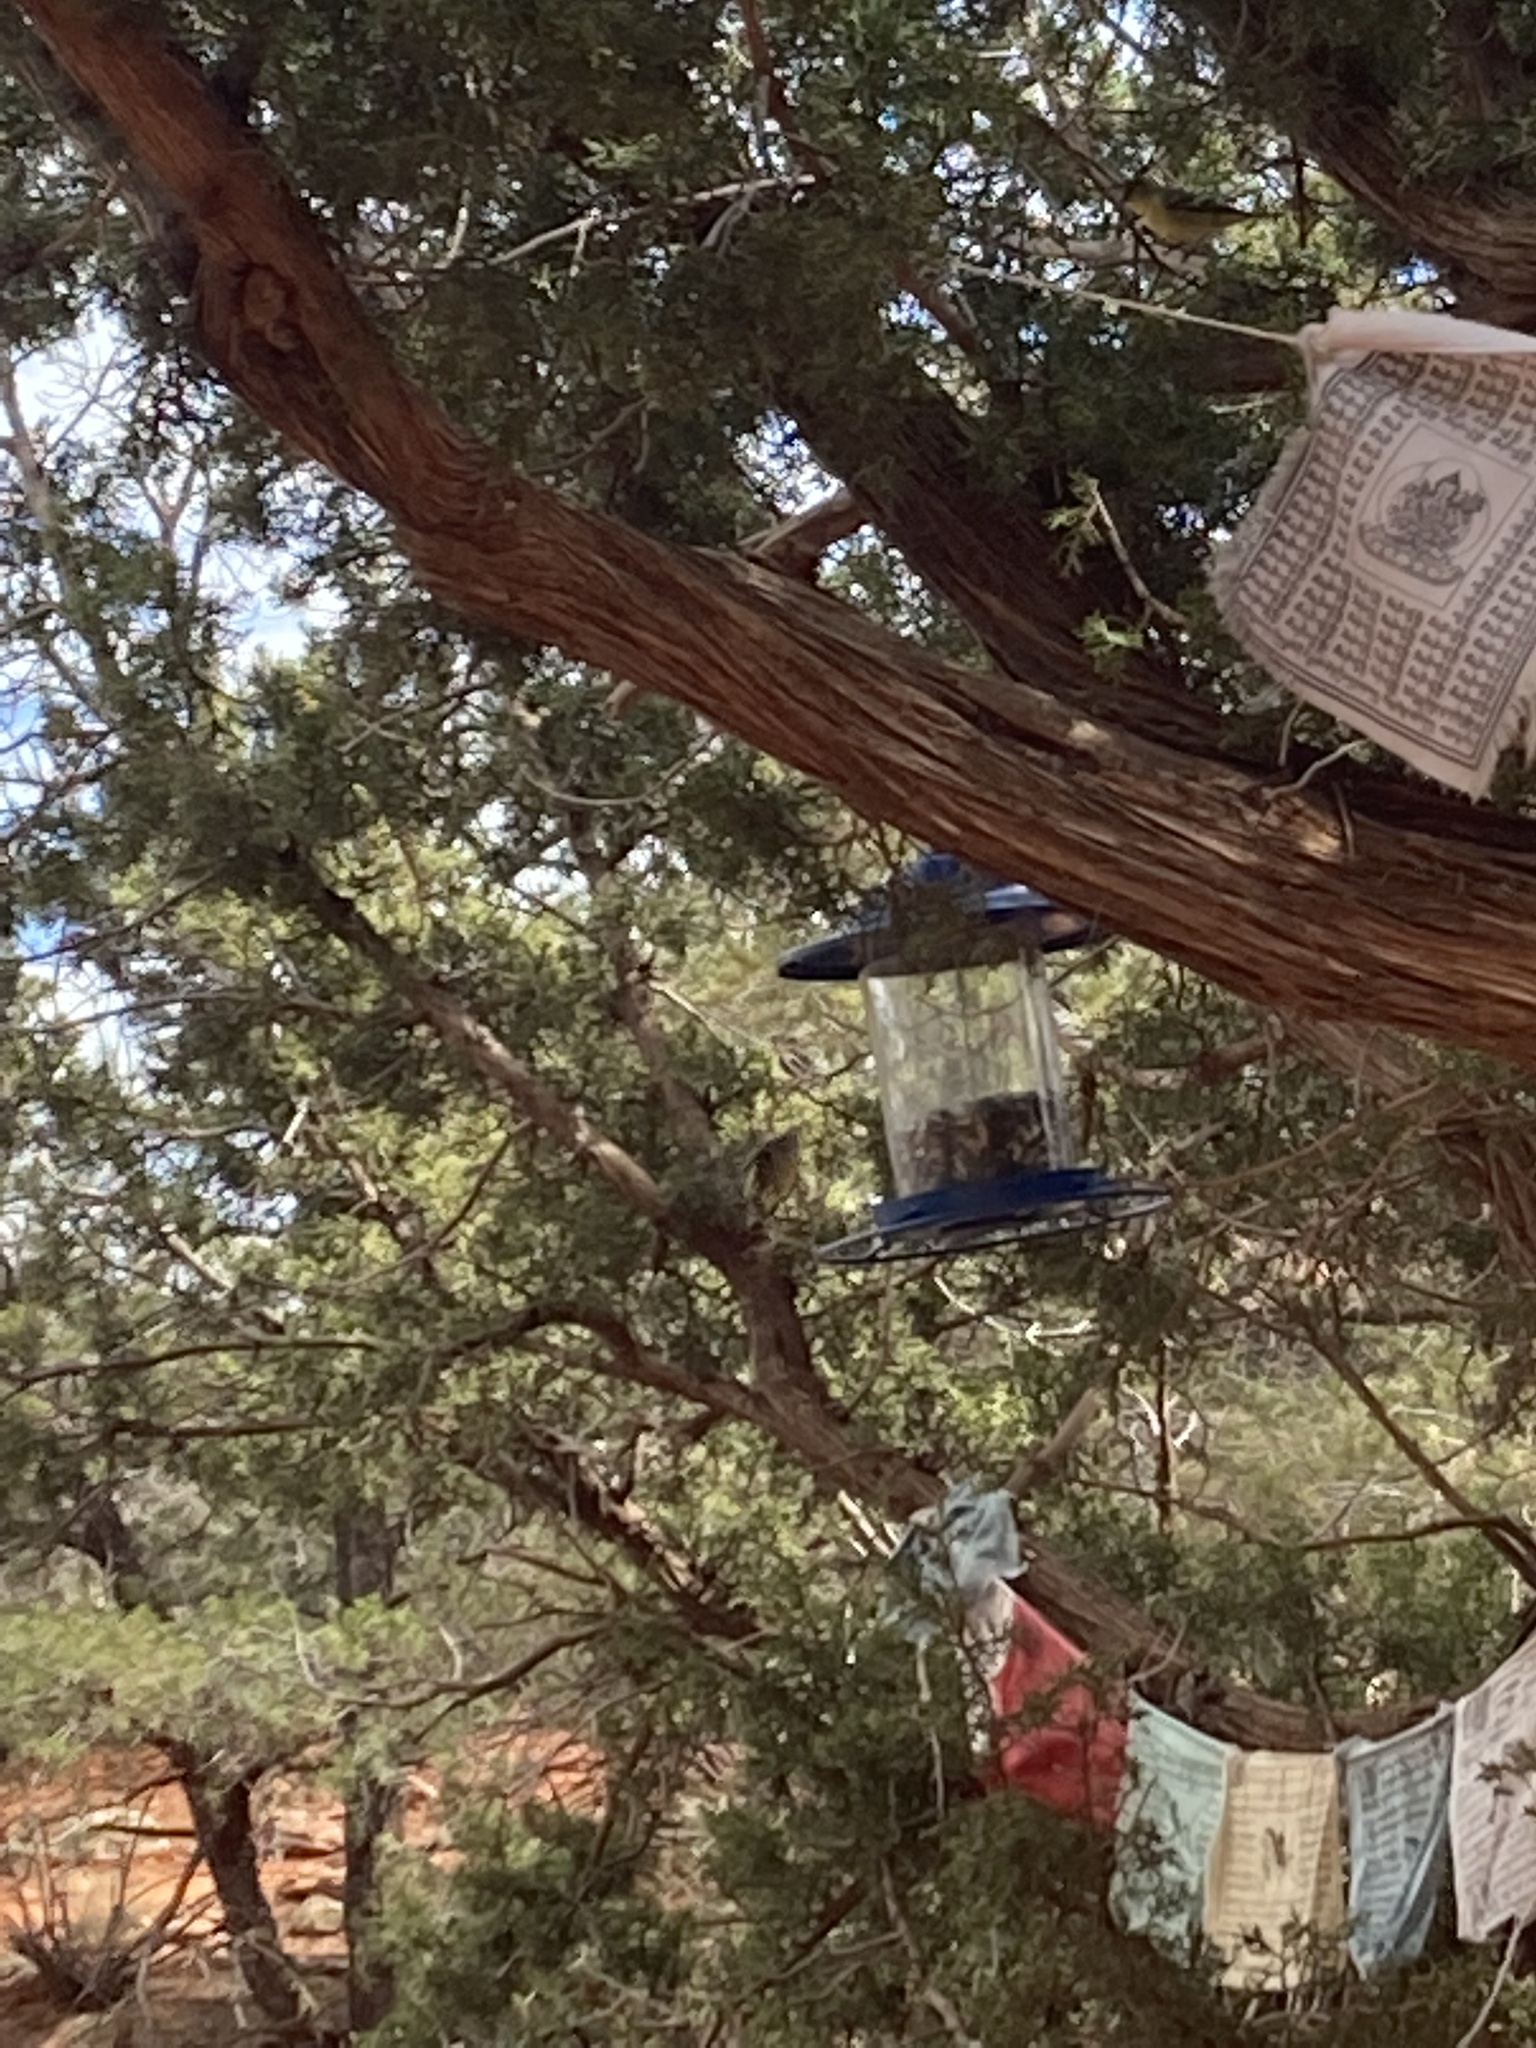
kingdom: Animalia
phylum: Chordata
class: Aves
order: Passeriformes
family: Fringillidae
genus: Spinus
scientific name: Spinus psaltria
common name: Lesser goldfinch
